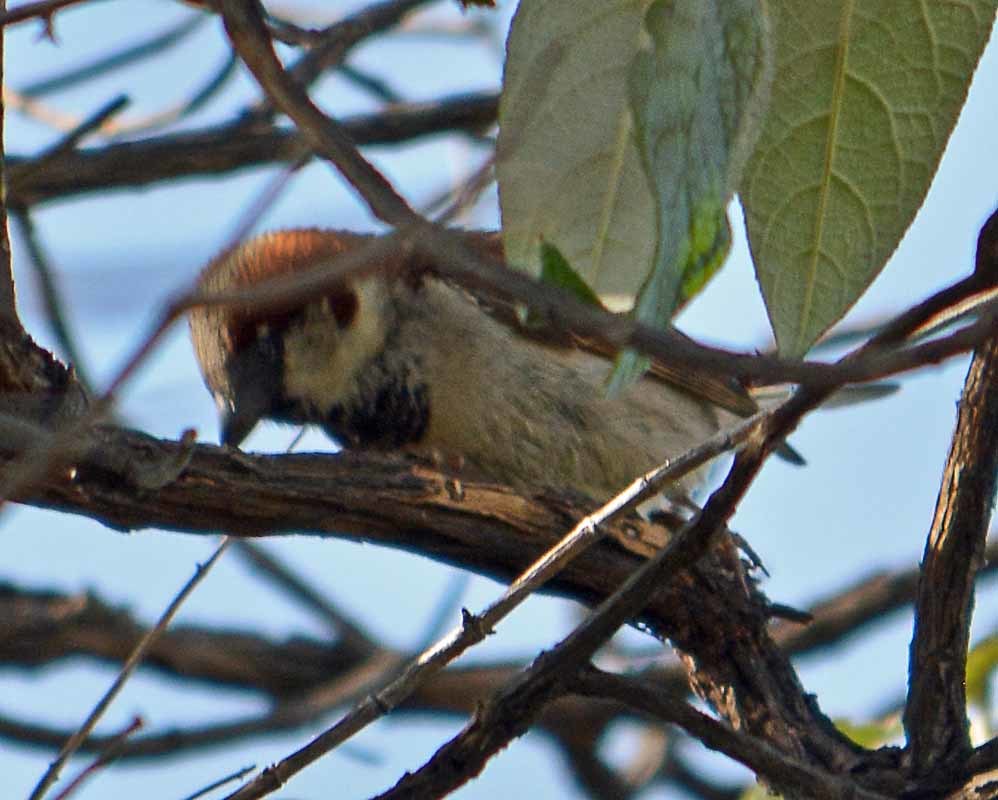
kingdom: Animalia
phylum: Chordata
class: Aves
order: Passeriformes
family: Passeridae
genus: Passer
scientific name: Passer domesticus
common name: House sparrow
